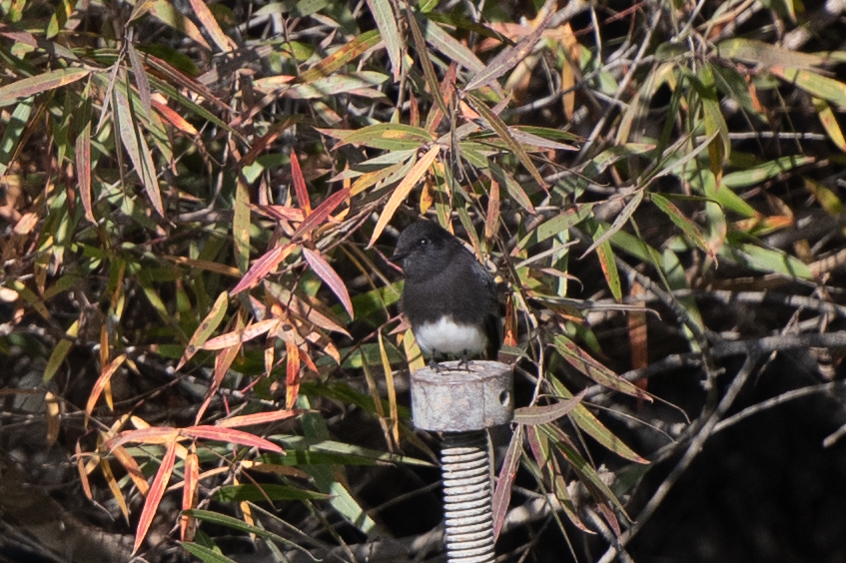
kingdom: Animalia
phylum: Chordata
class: Aves
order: Passeriformes
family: Tyrannidae
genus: Sayornis
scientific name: Sayornis nigricans
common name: Black phoebe
